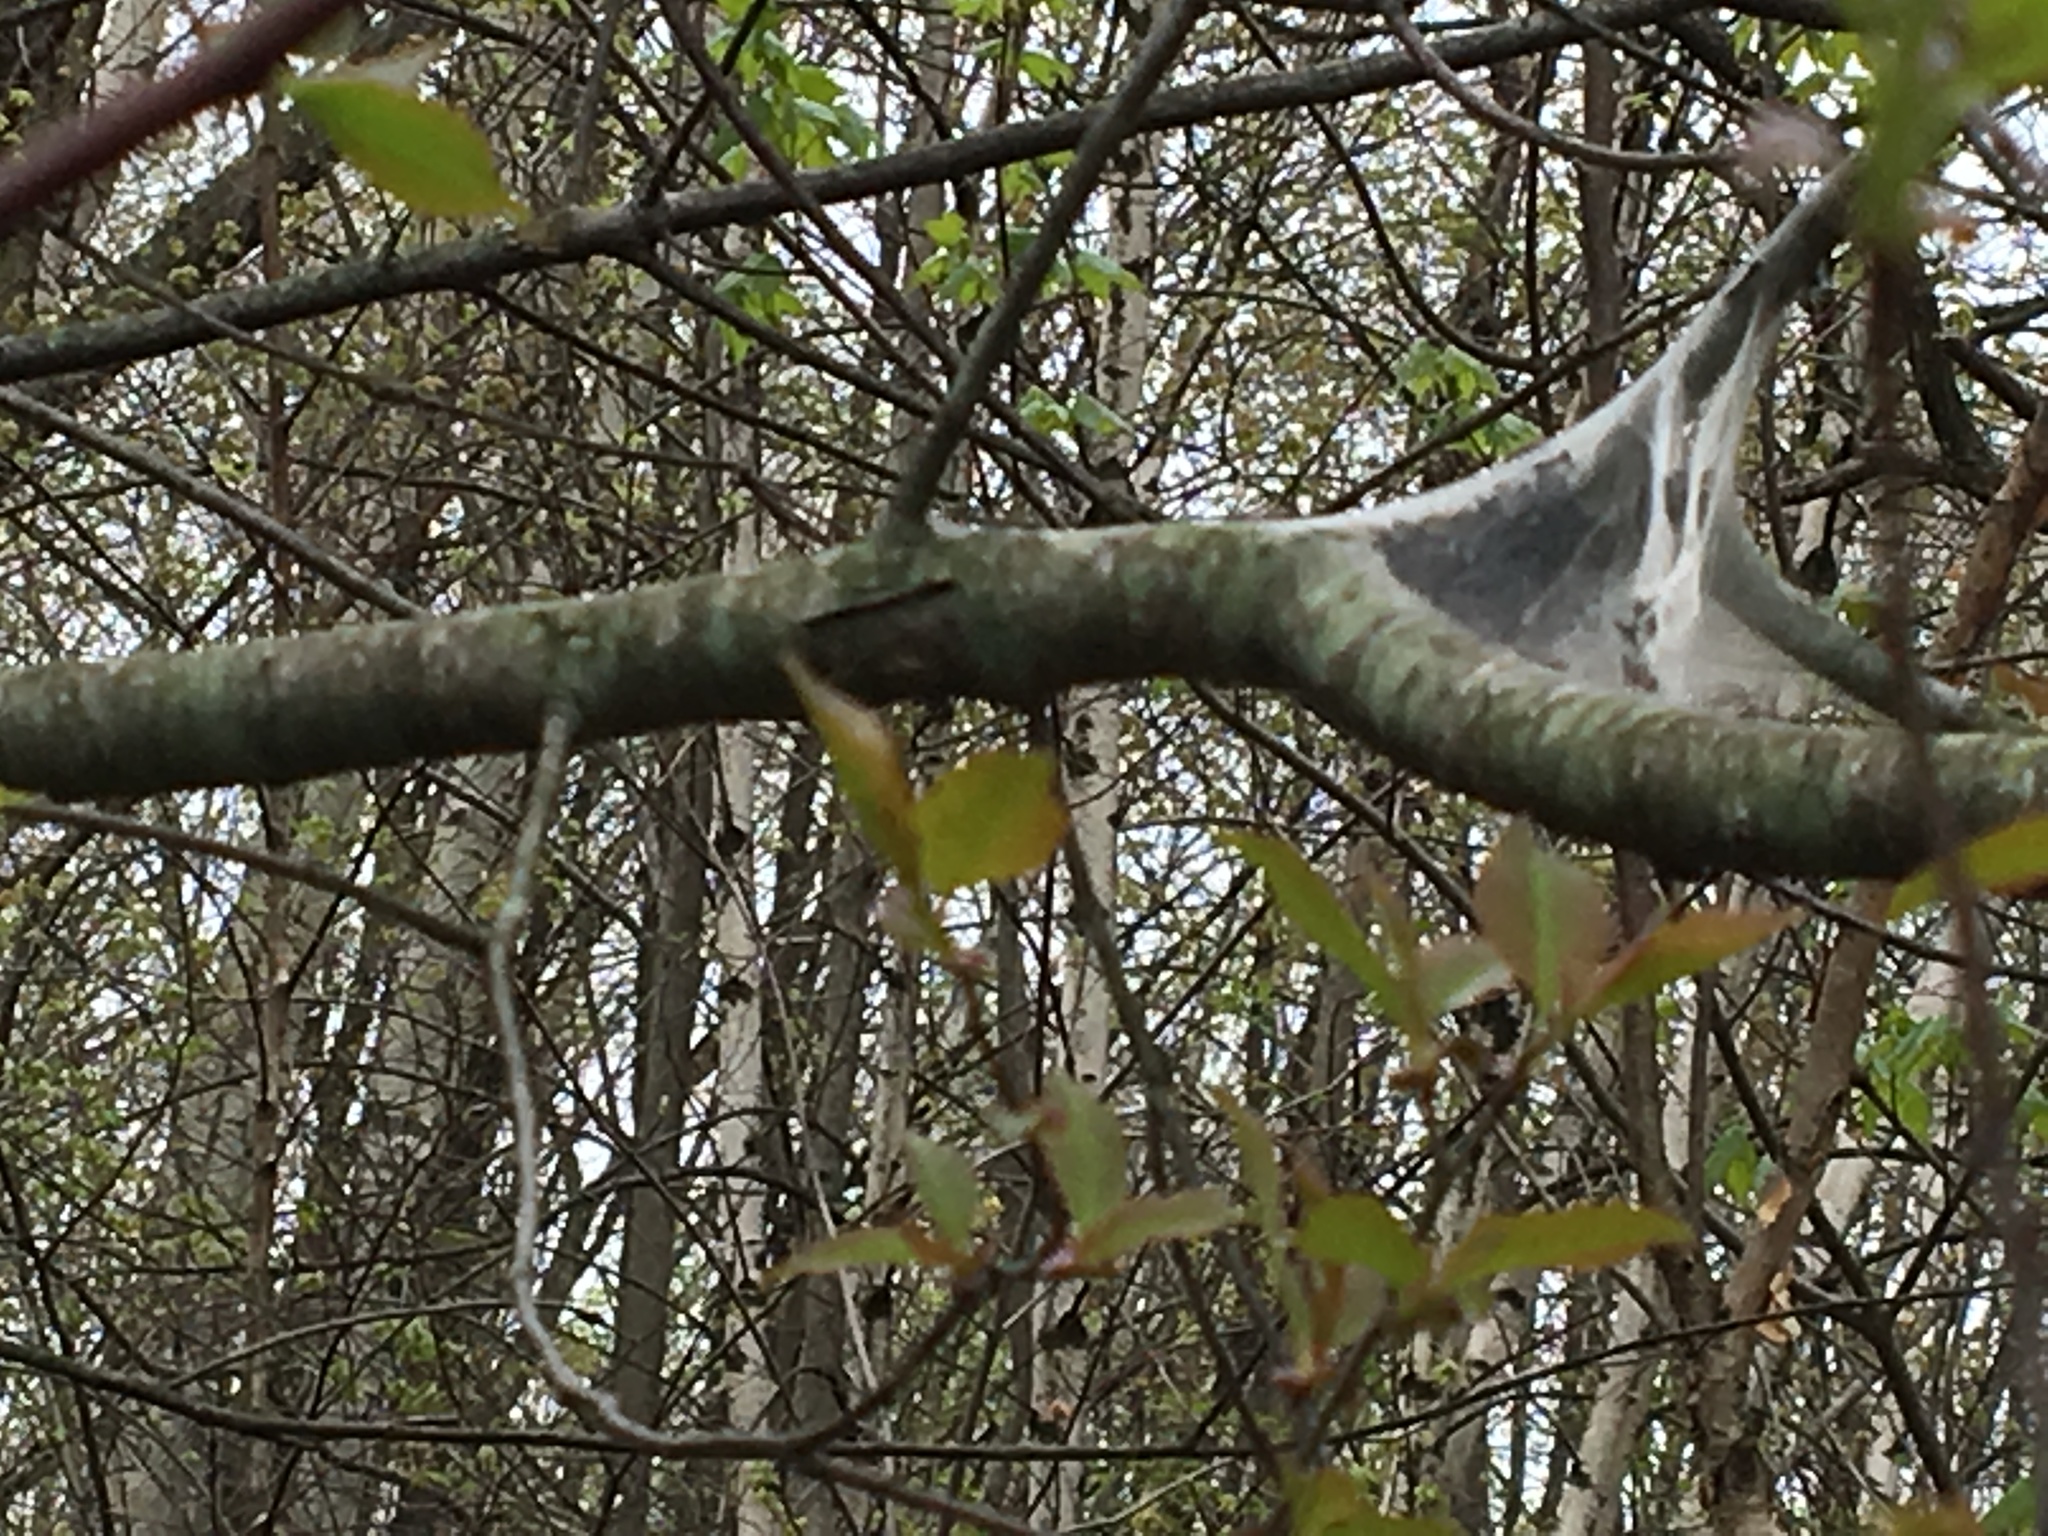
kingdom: Animalia
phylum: Arthropoda
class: Insecta
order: Lepidoptera
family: Lasiocampidae
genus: Malacosoma
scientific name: Malacosoma americana
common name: Eastern tent caterpillar moth
